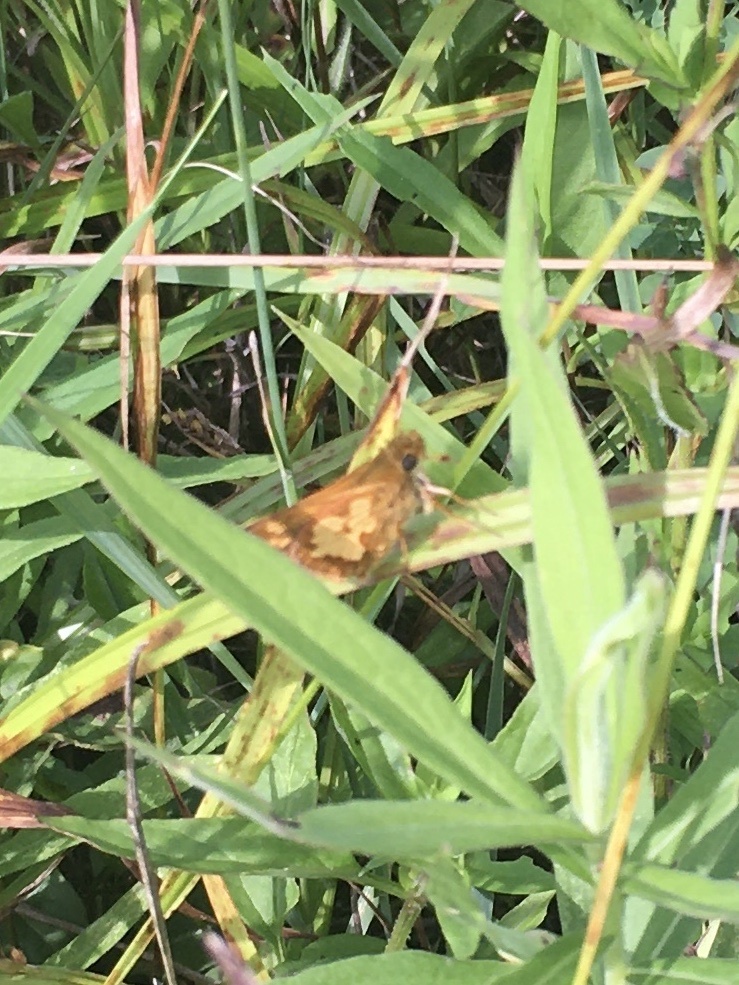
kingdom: Animalia
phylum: Arthropoda
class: Insecta
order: Lepidoptera
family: Hesperiidae
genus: Polites
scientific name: Polites coras
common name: Peck's skipper
